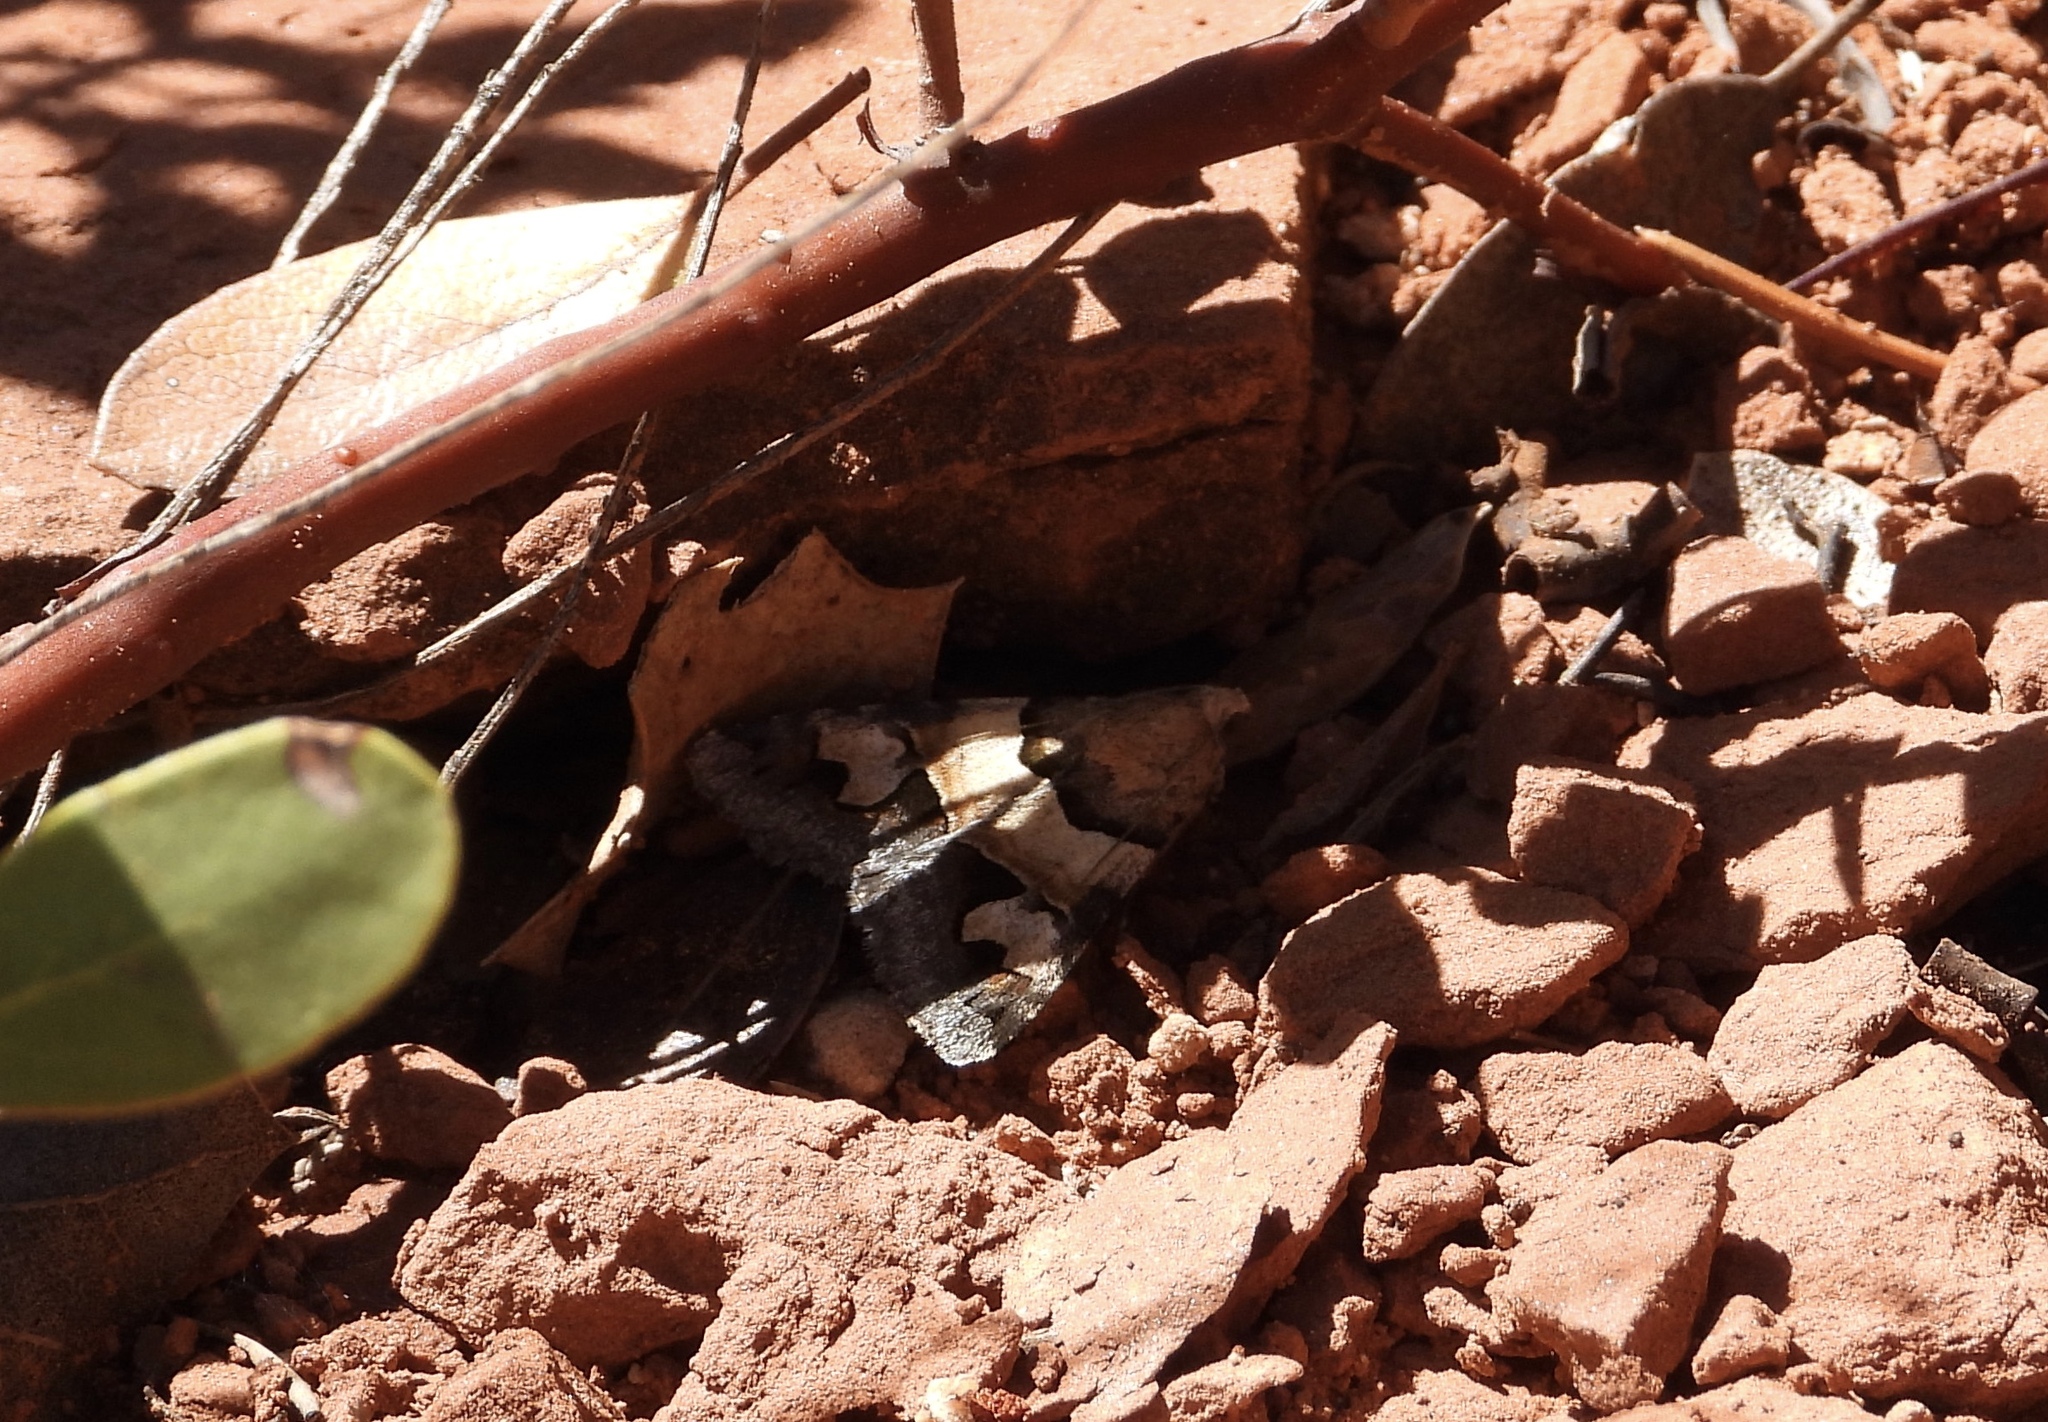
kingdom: Animalia
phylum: Arthropoda
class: Insecta
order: Lepidoptera
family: Erebidae
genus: Drasteria
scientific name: Drasteria pallescens
